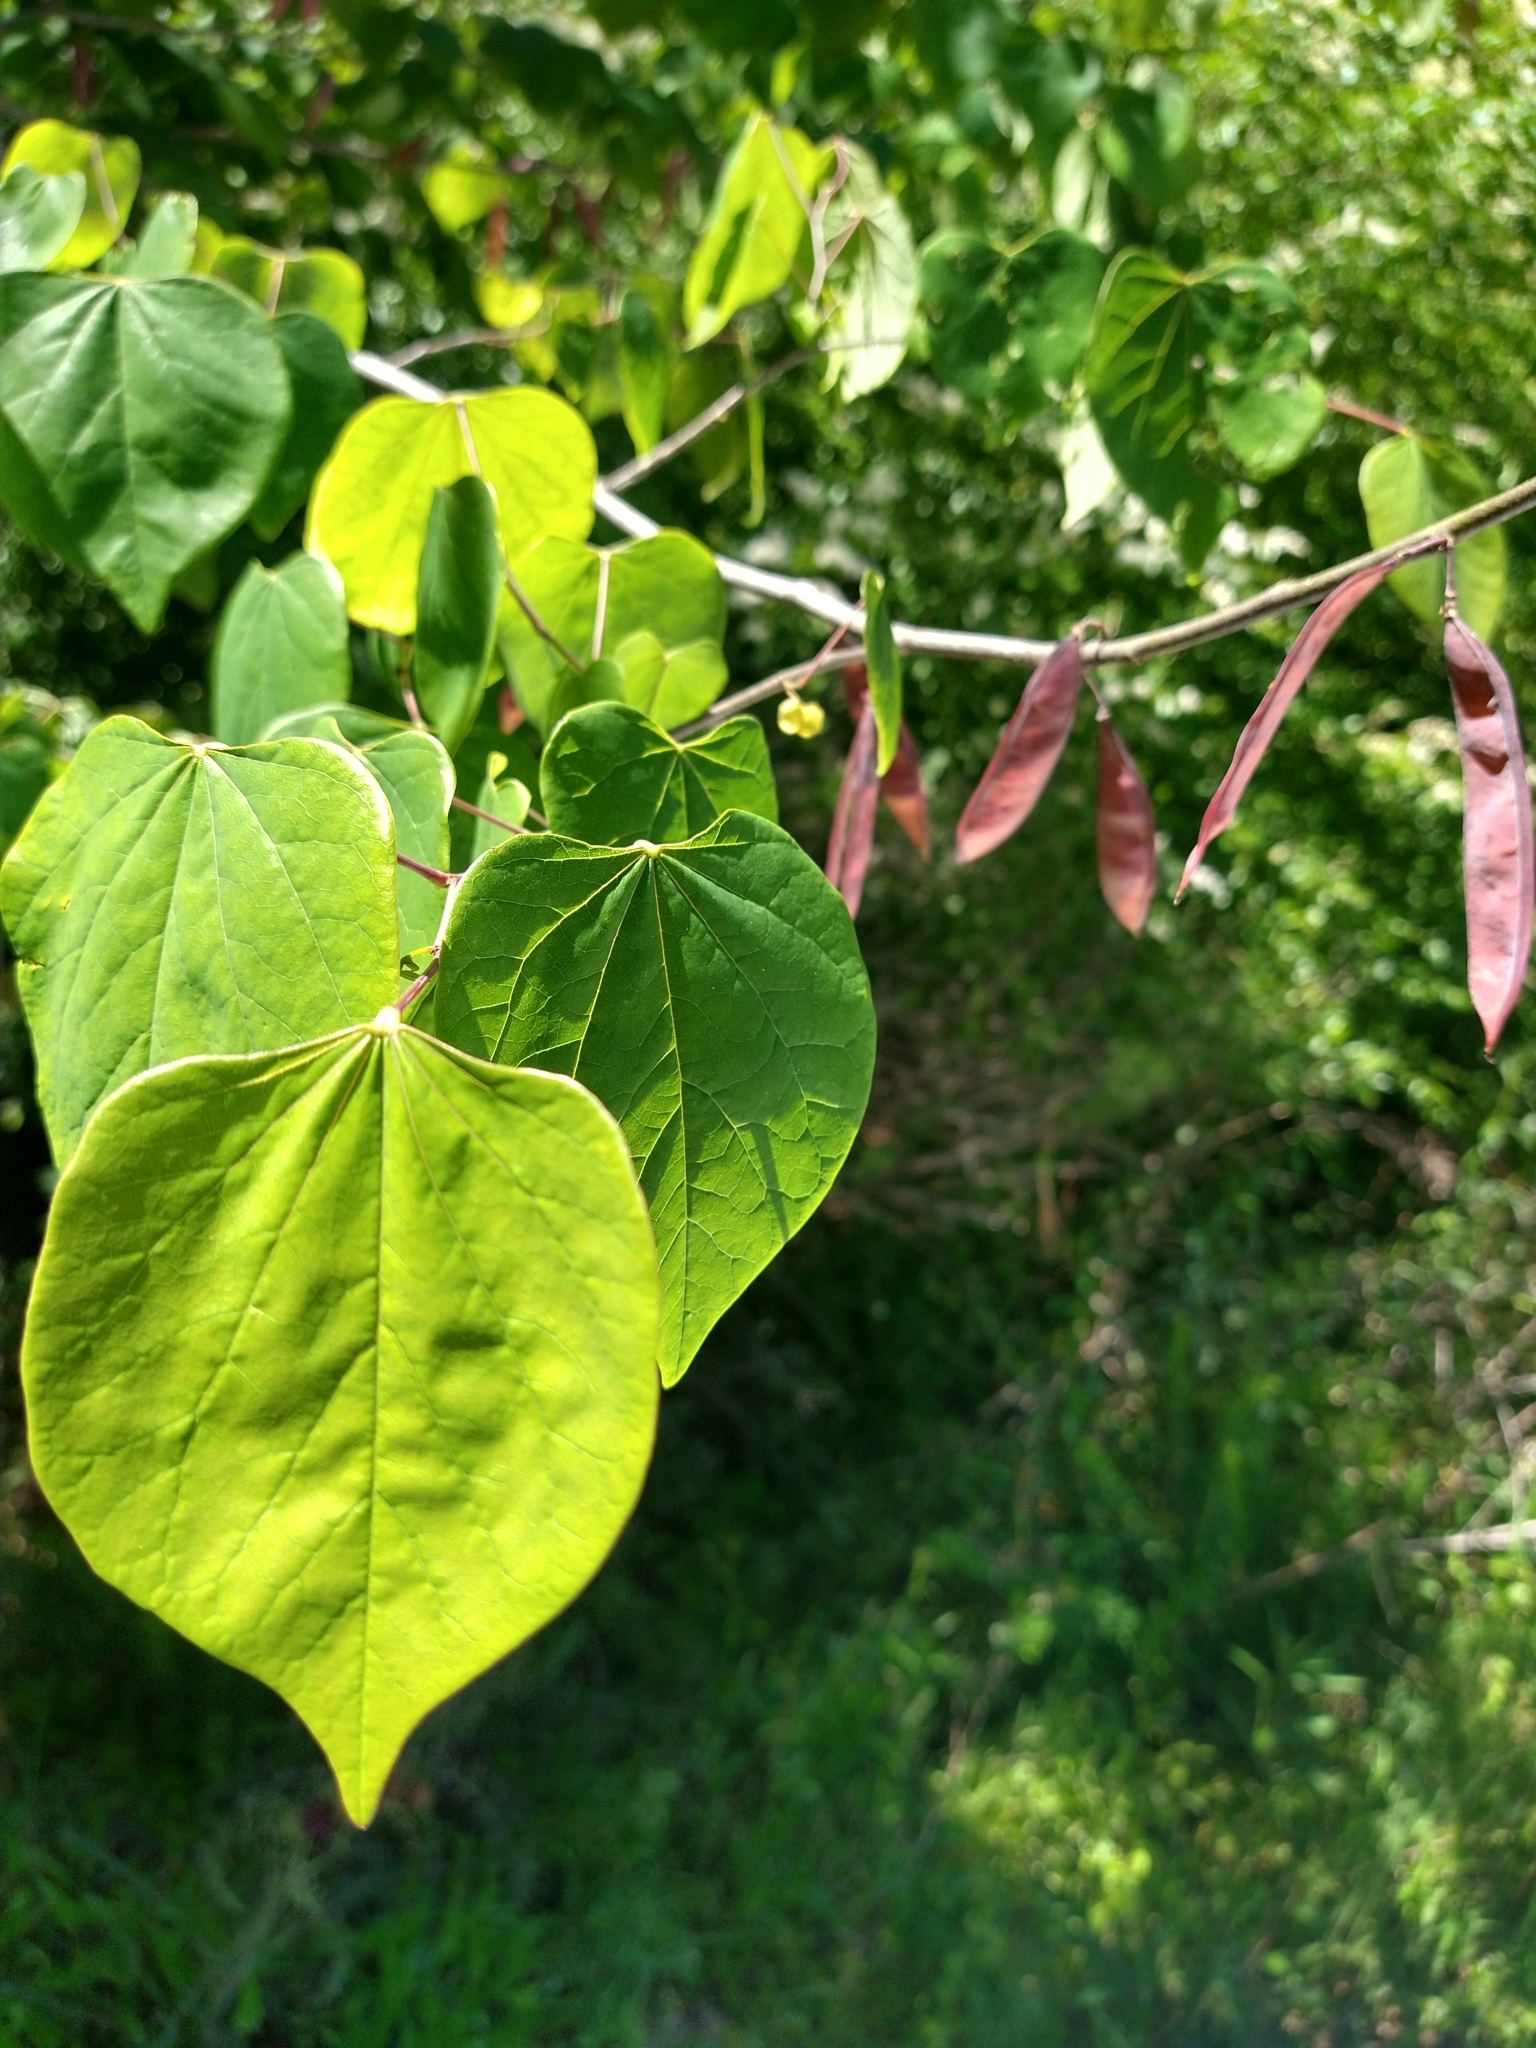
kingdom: Plantae
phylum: Tracheophyta
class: Magnoliopsida
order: Fabales
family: Fabaceae
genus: Cercis
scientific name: Cercis canadensis
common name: Eastern redbud
